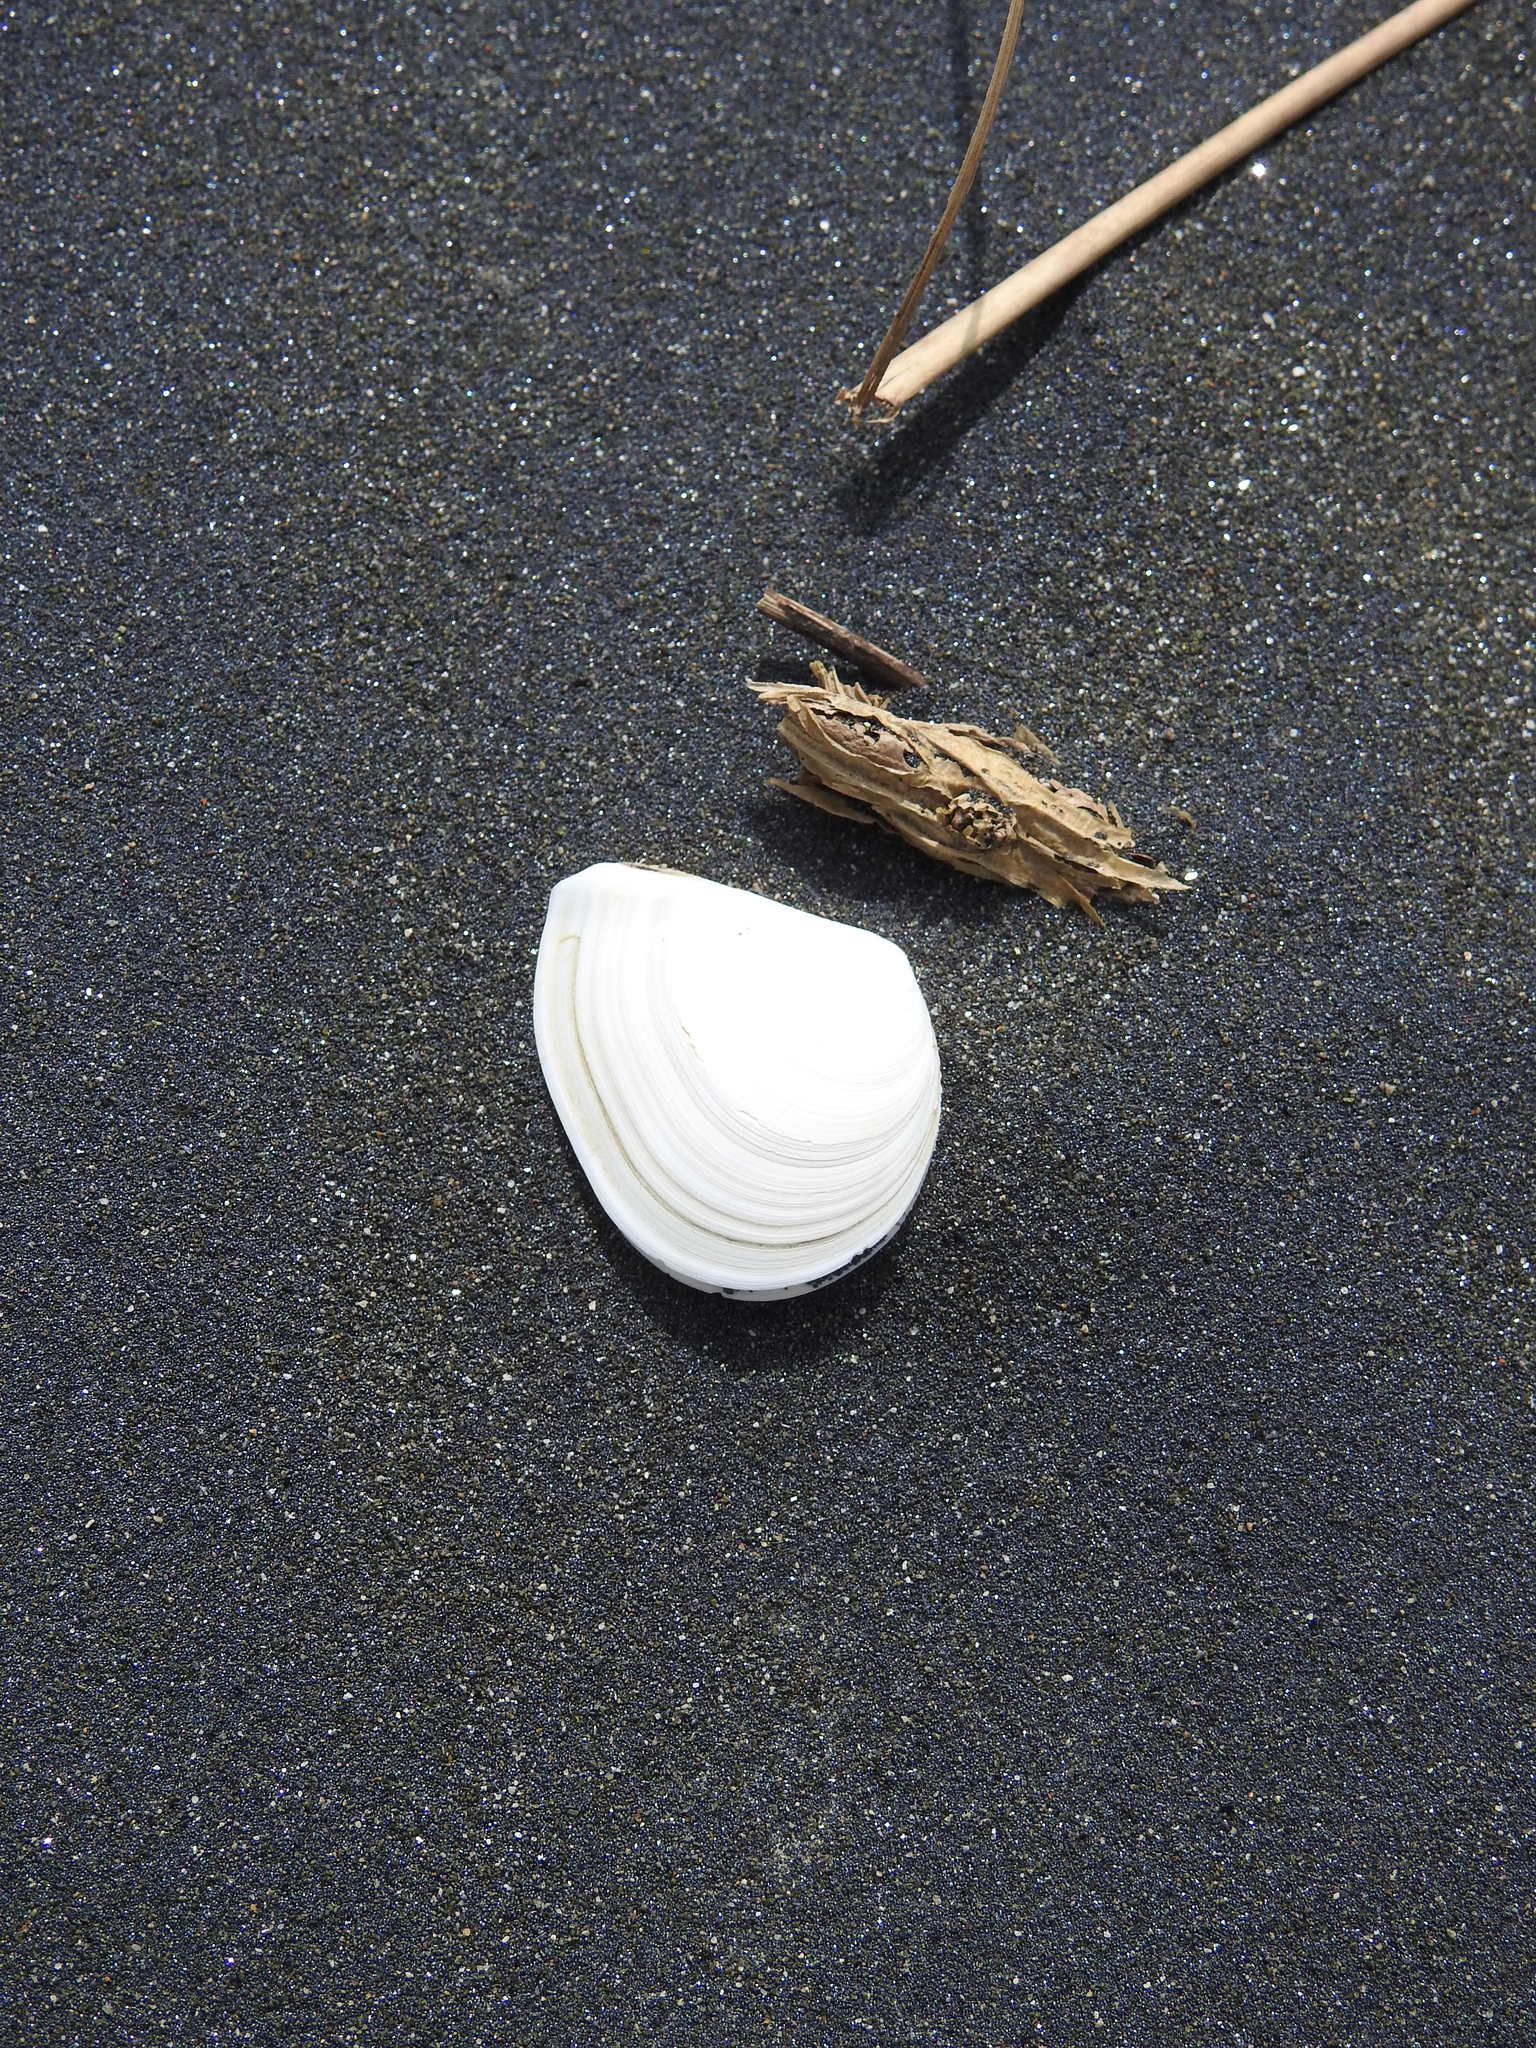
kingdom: Animalia
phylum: Mollusca
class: Bivalvia
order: Cardiida
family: Tellinidae
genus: Macomona
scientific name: Macomona liliana
